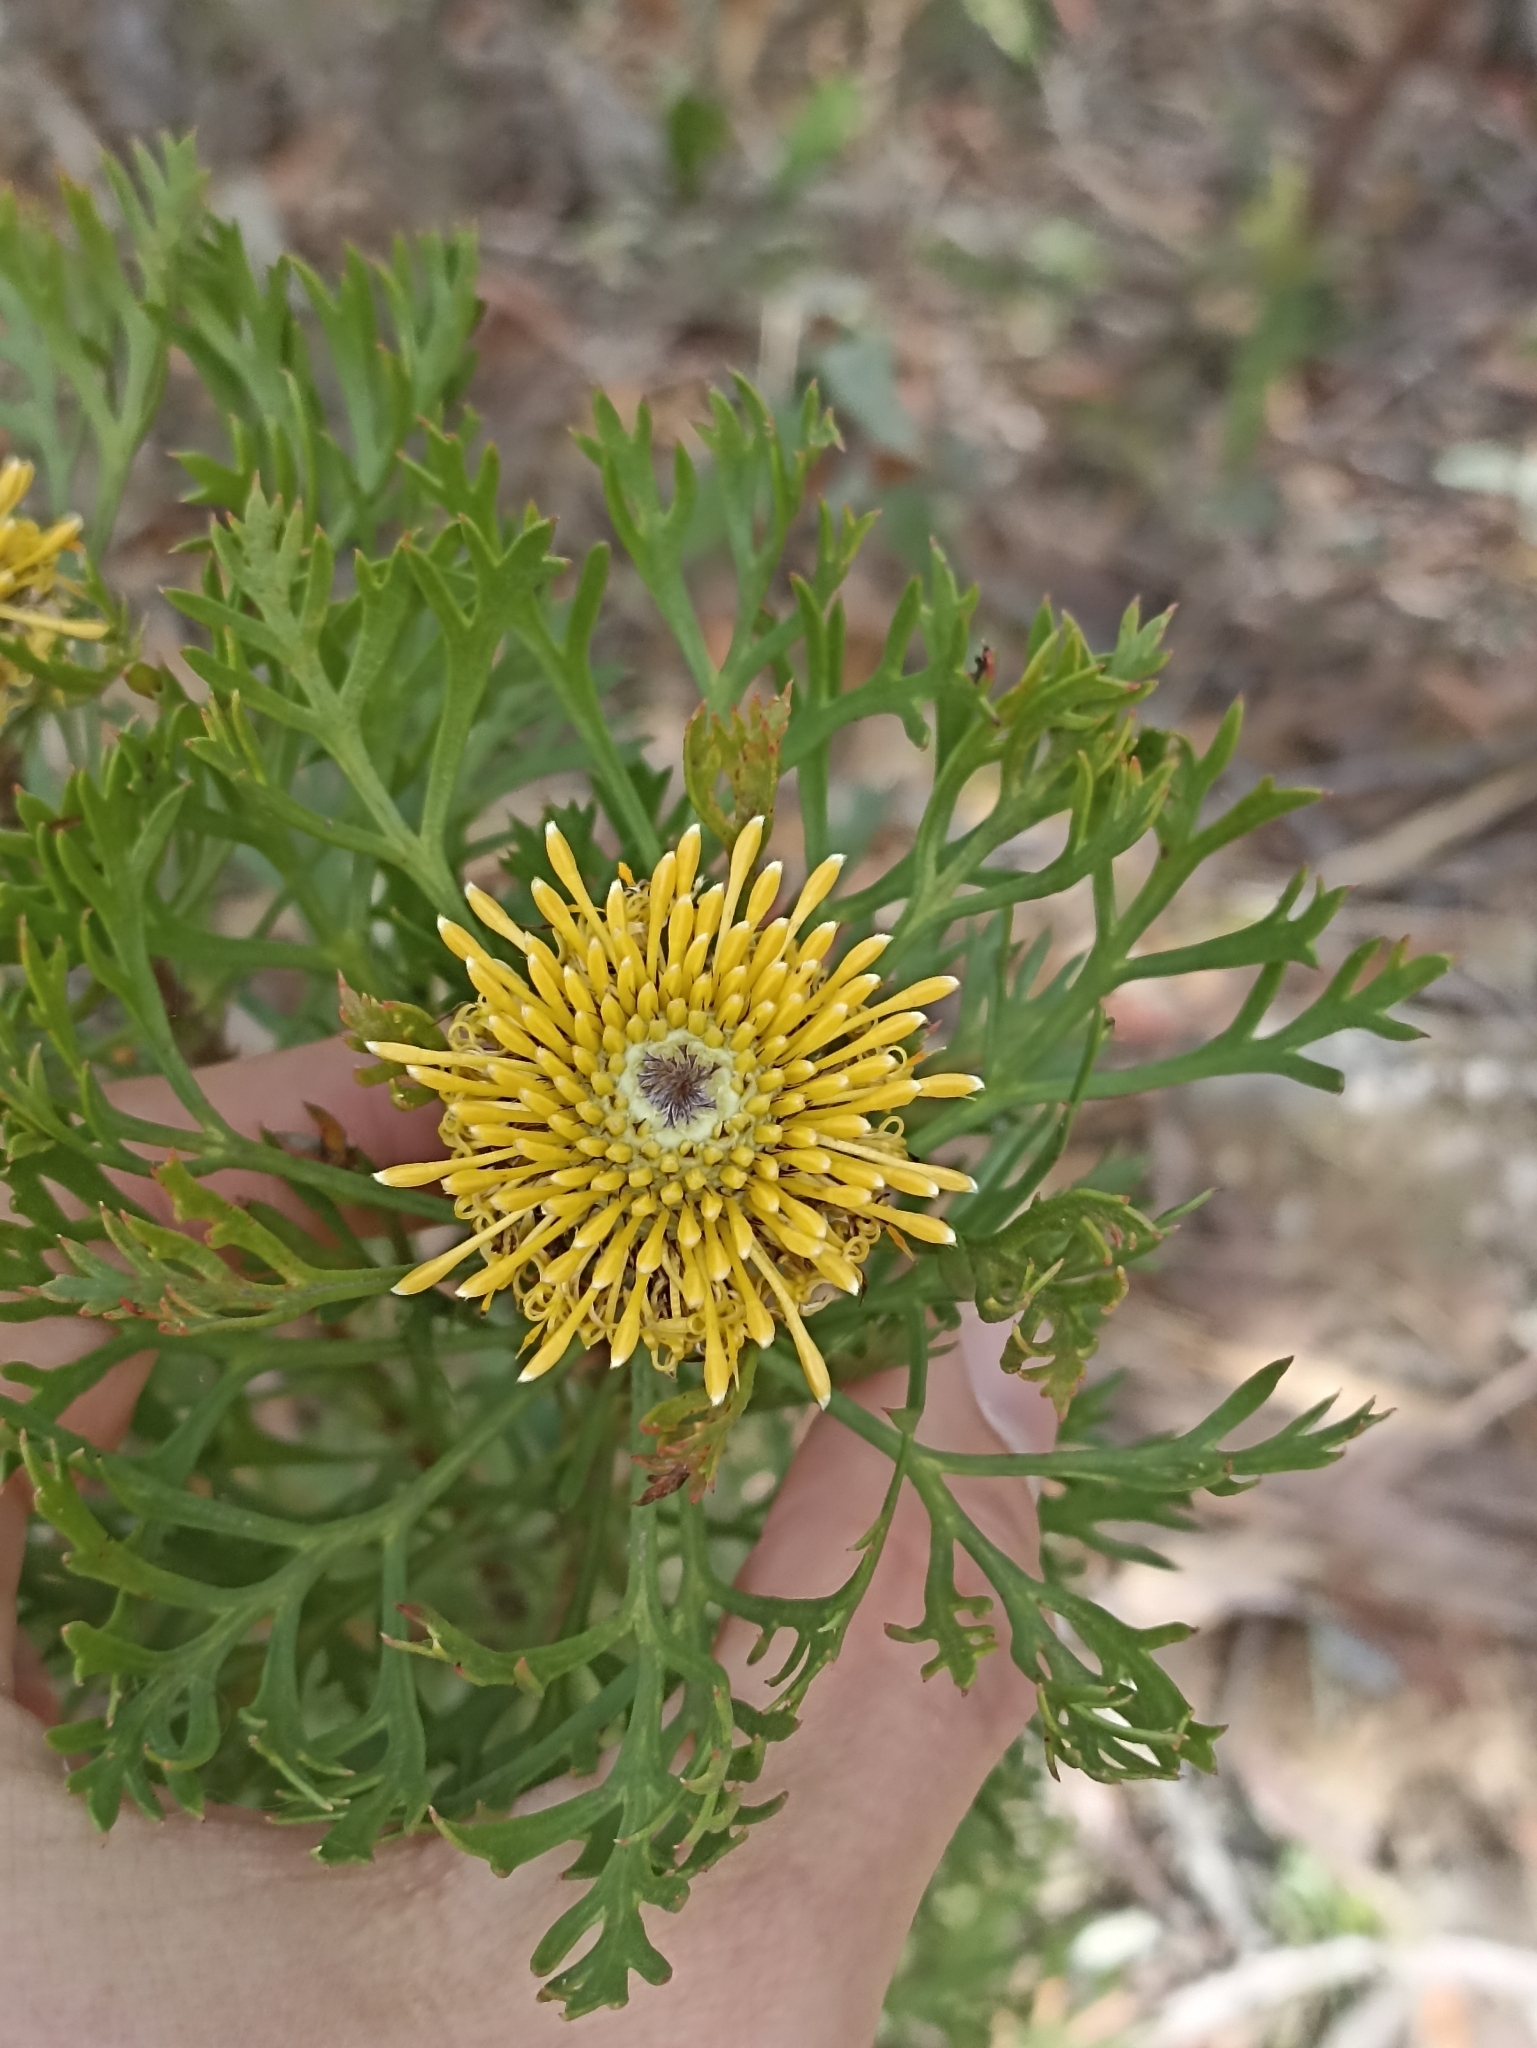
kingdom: Plantae
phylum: Tracheophyta
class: Magnoliopsida
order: Proteales
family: Proteaceae
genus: Isopogon
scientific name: Isopogon anemonifolius
